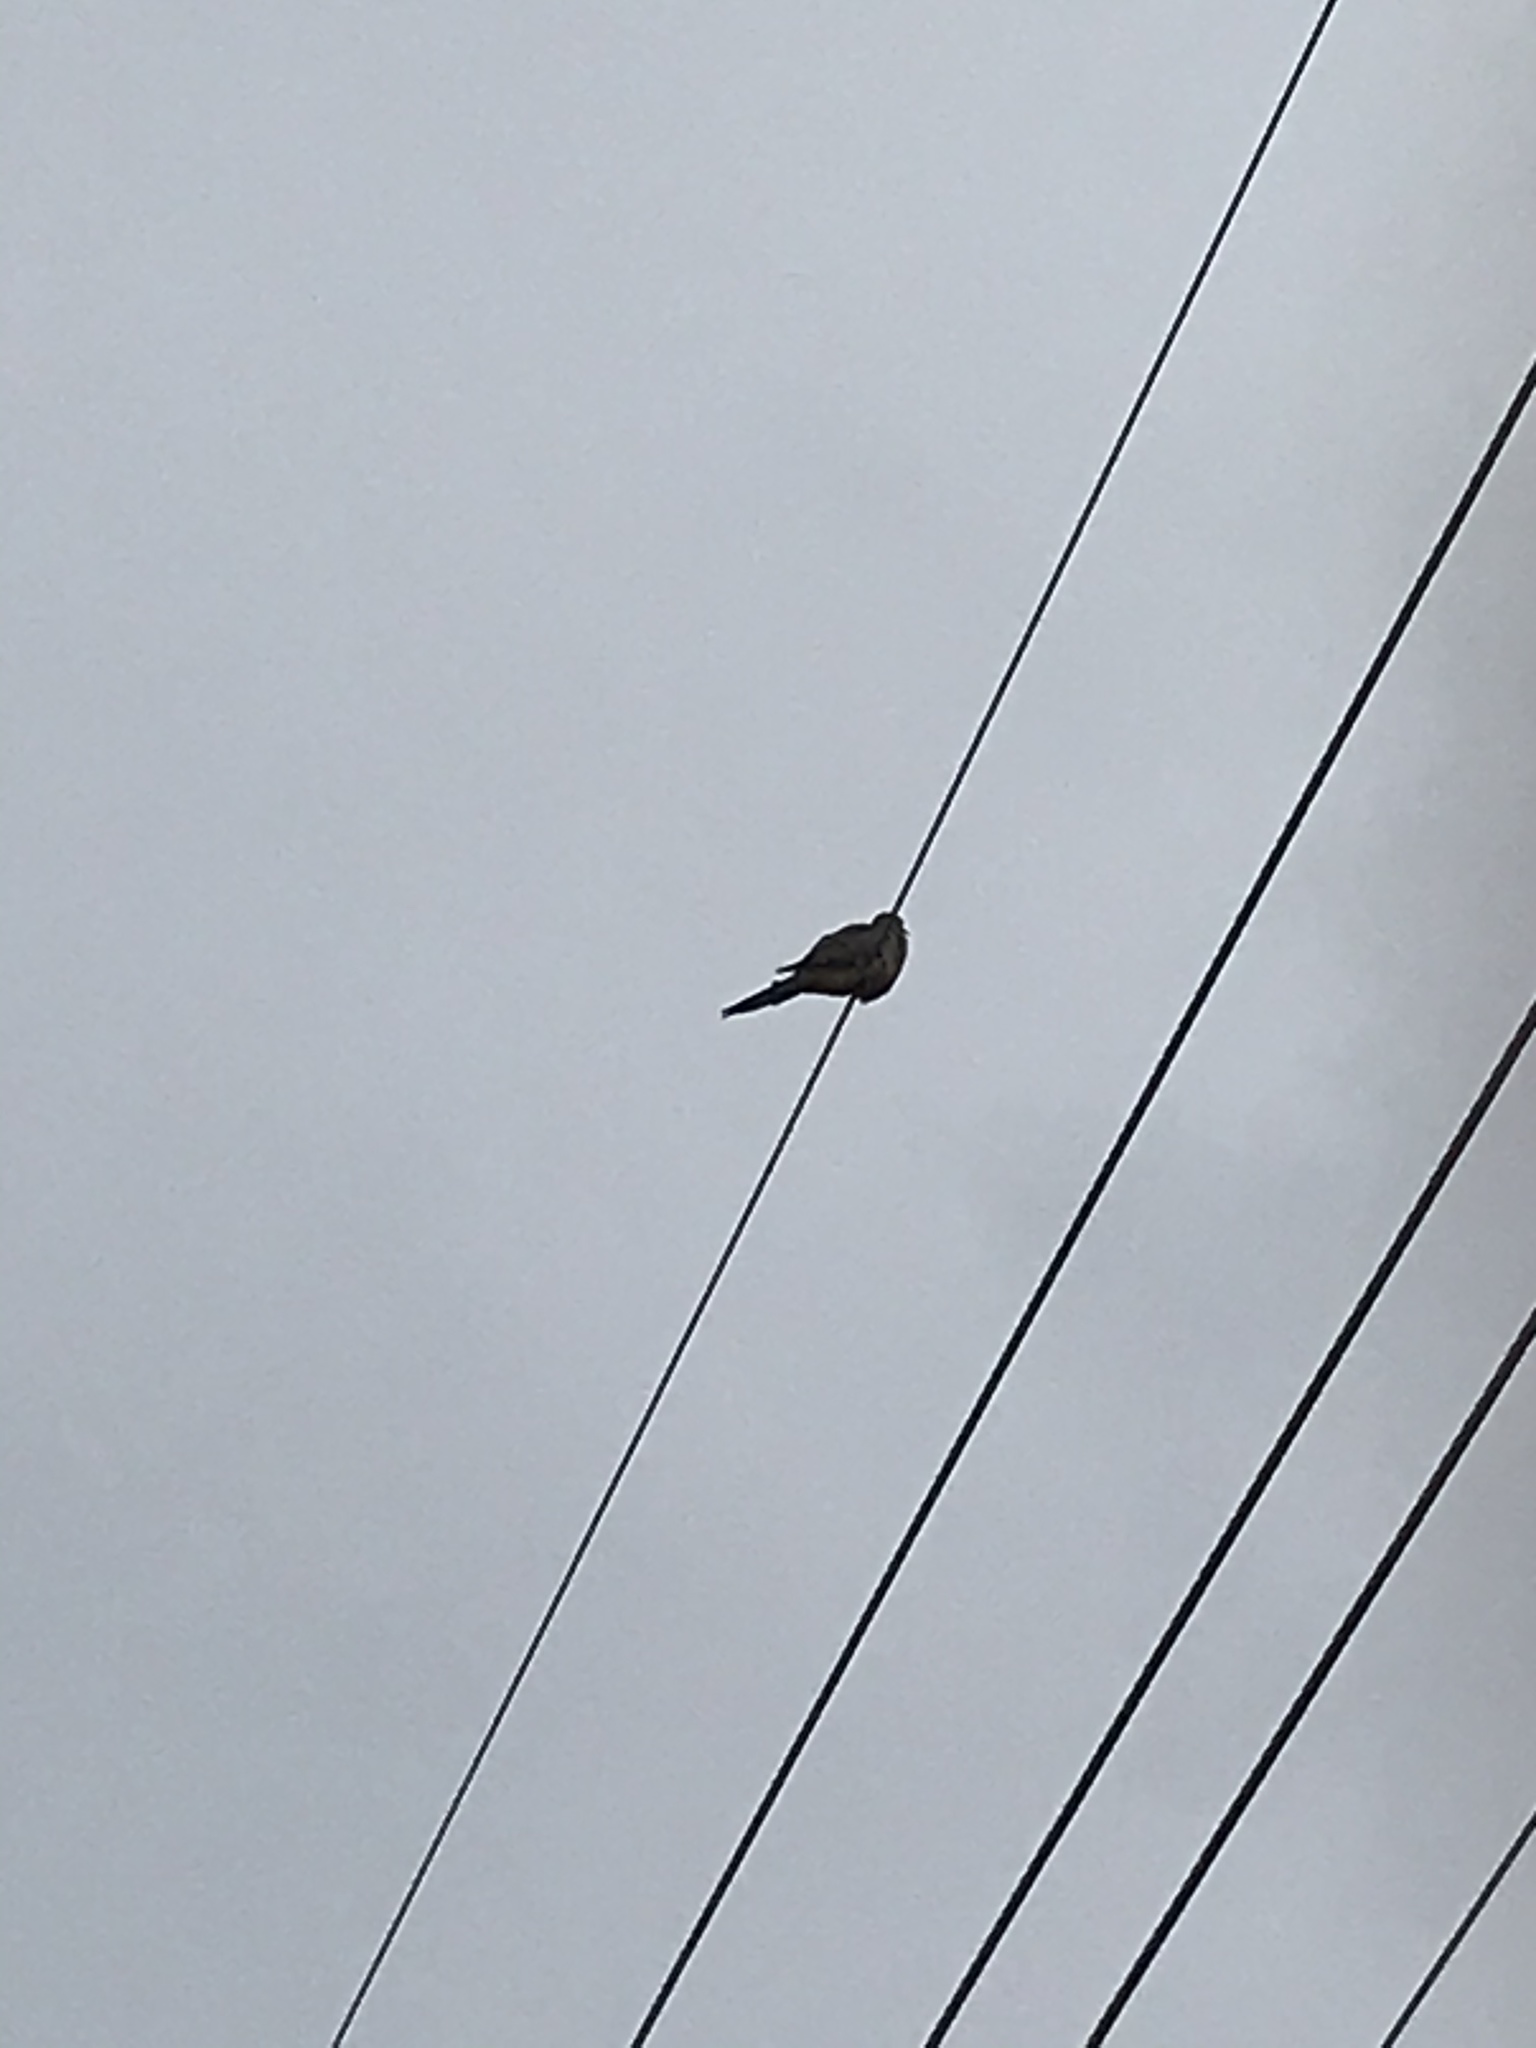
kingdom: Animalia
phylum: Chordata
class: Aves
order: Columbiformes
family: Columbidae
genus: Zenaida
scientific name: Zenaida macroura
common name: Mourning dove
